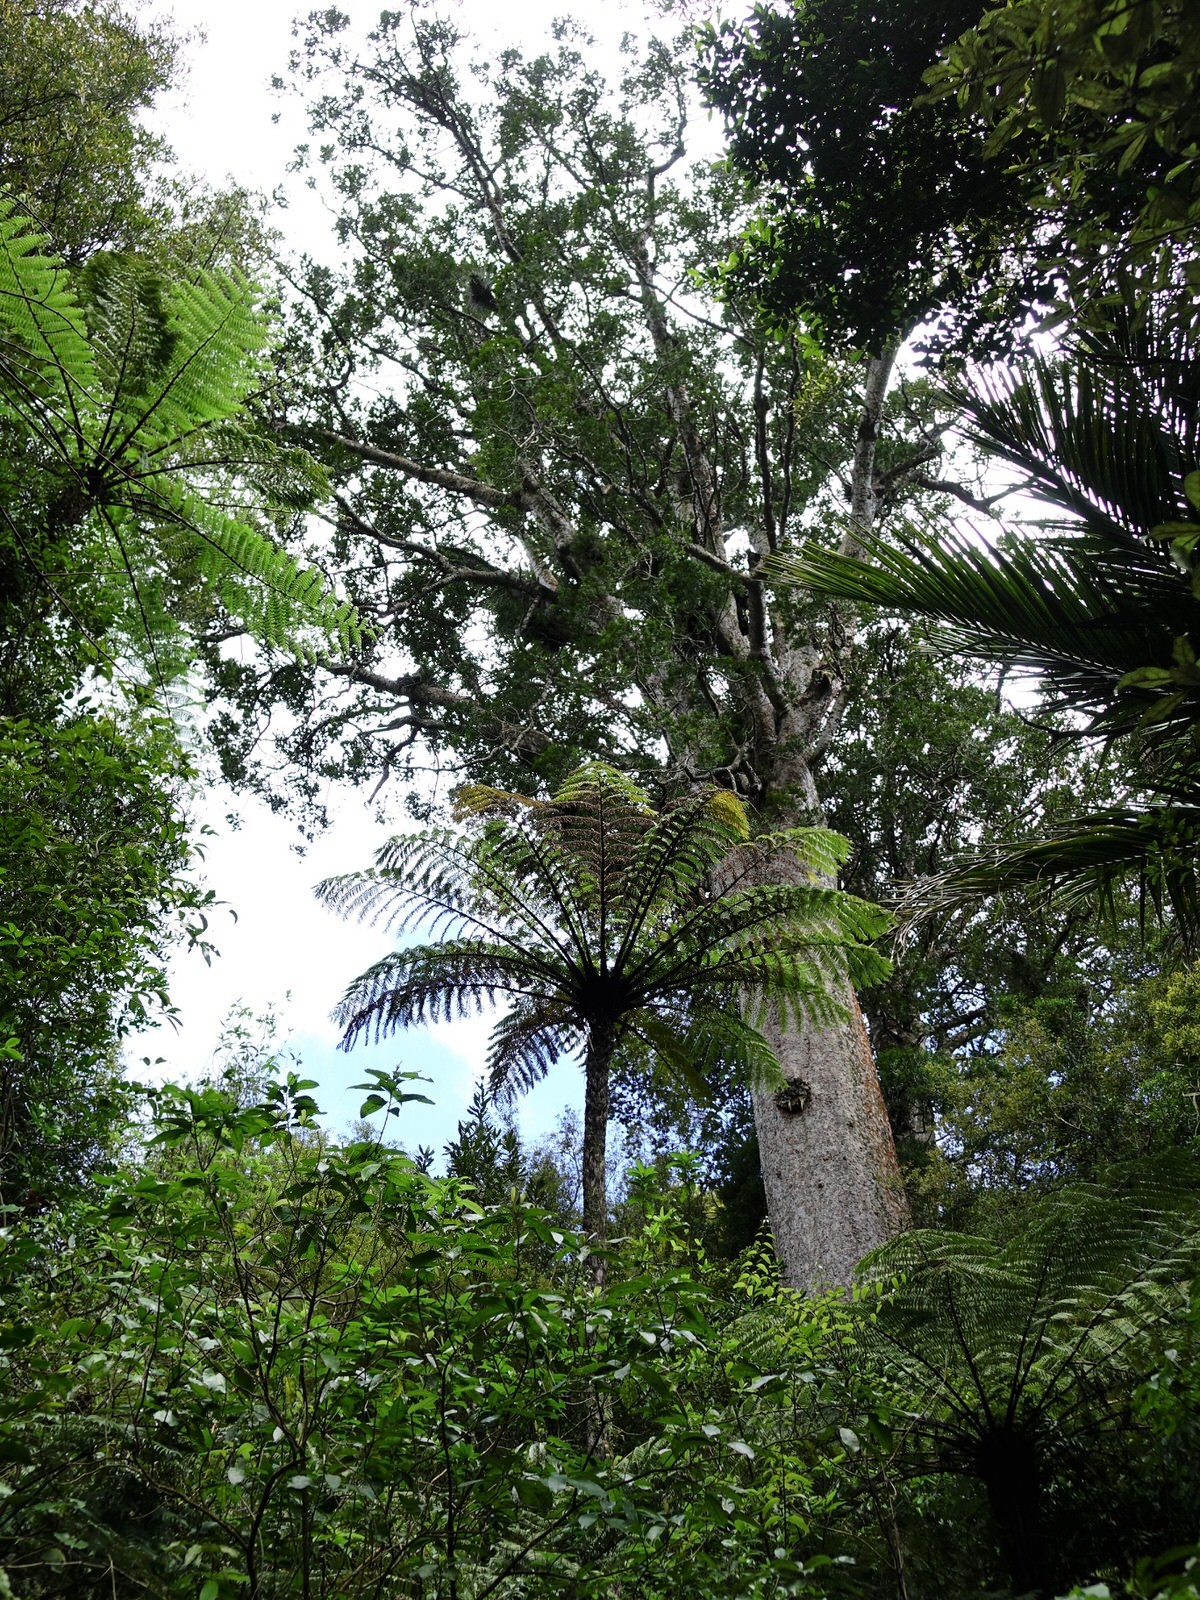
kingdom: Plantae
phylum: Tracheophyta
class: Pinopsida
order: Pinales
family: Araucariaceae
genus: Agathis
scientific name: Agathis australis
